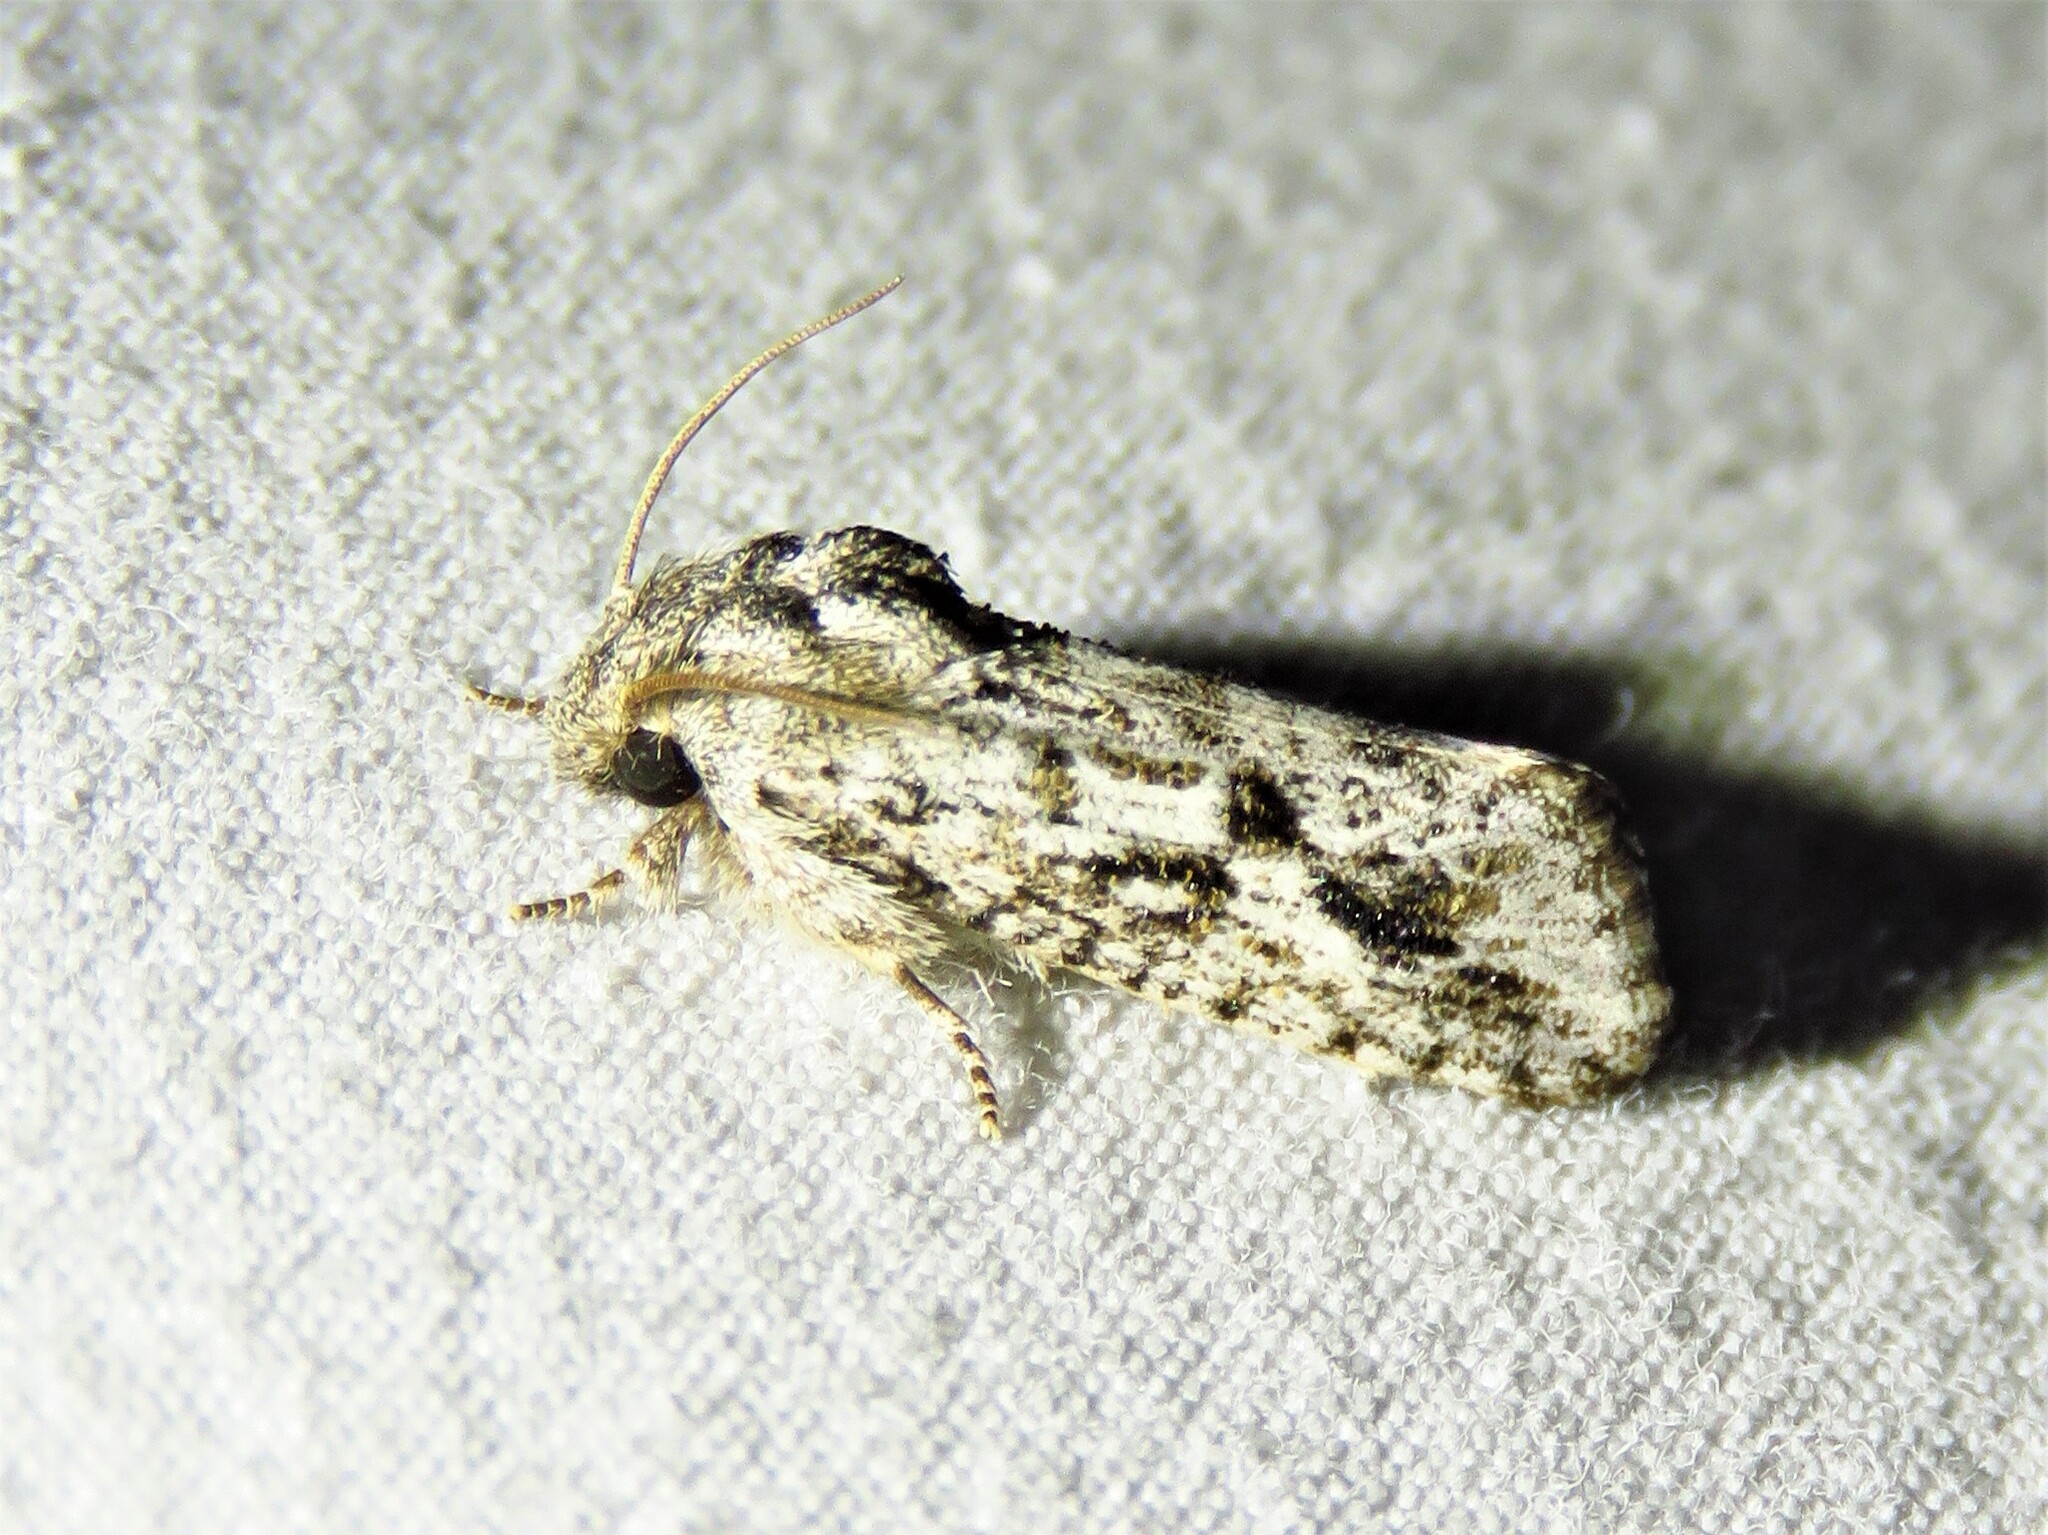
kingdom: Animalia
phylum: Arthropoda
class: Insecta
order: Lepidoptera
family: Tineidae
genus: Acrolophus
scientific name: Acrolophus griseus
